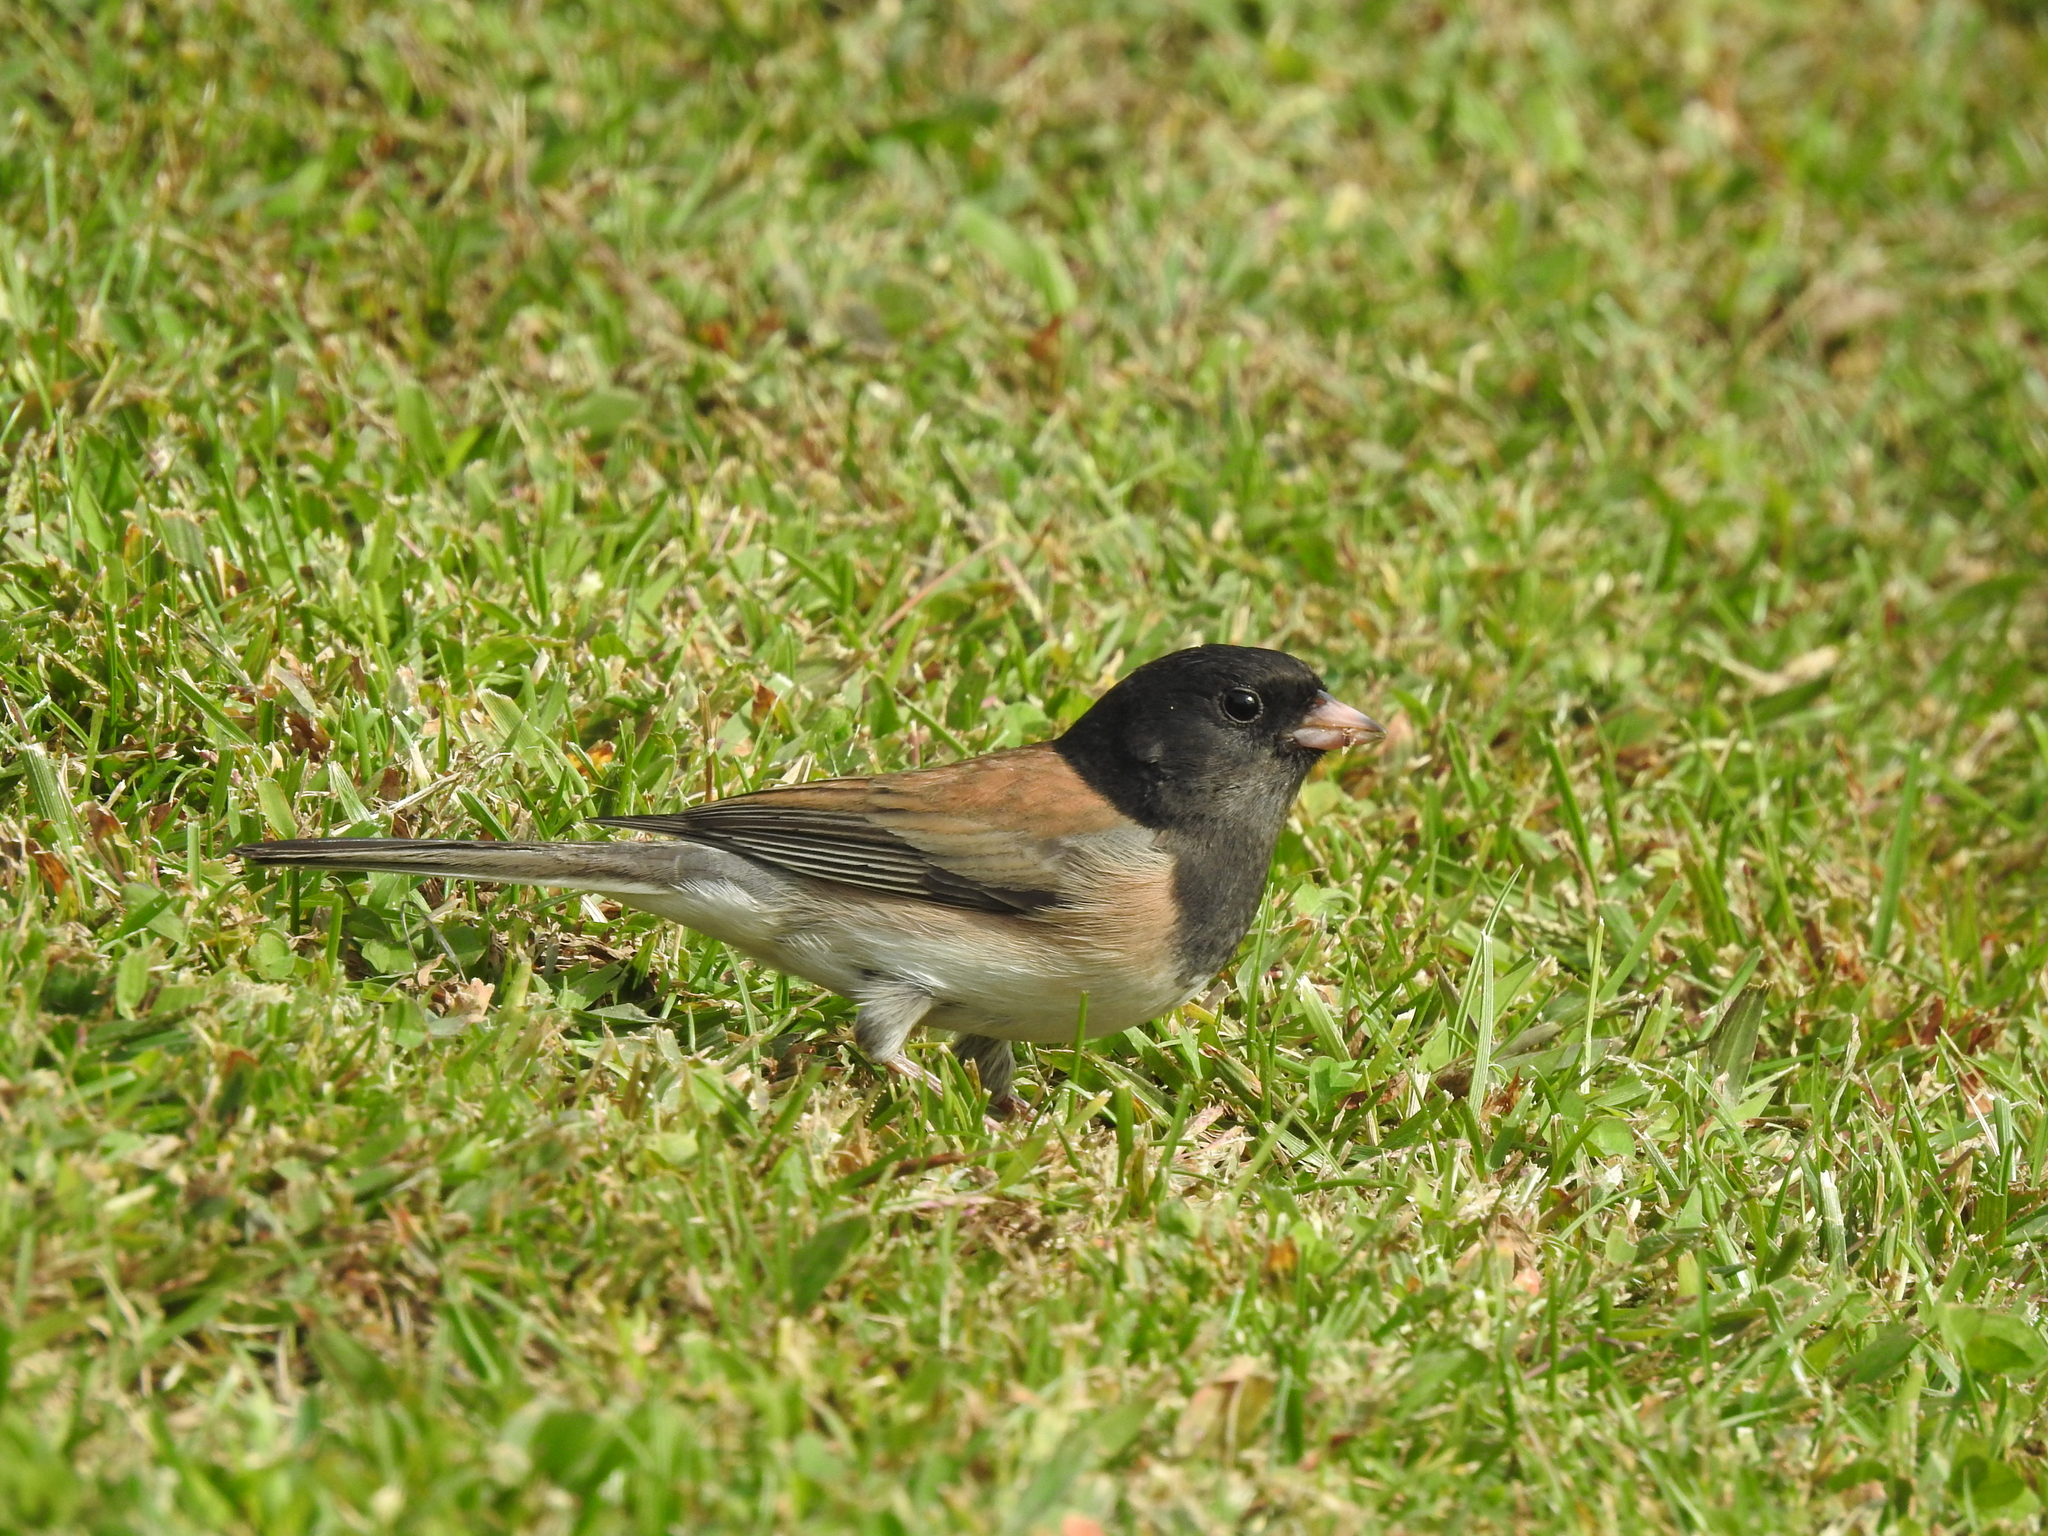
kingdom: Animalia
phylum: Chordata
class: Aves
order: Passeriformes
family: Passerellidae
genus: Junco
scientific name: Junco hyemalis
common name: Dark-eyed junco
